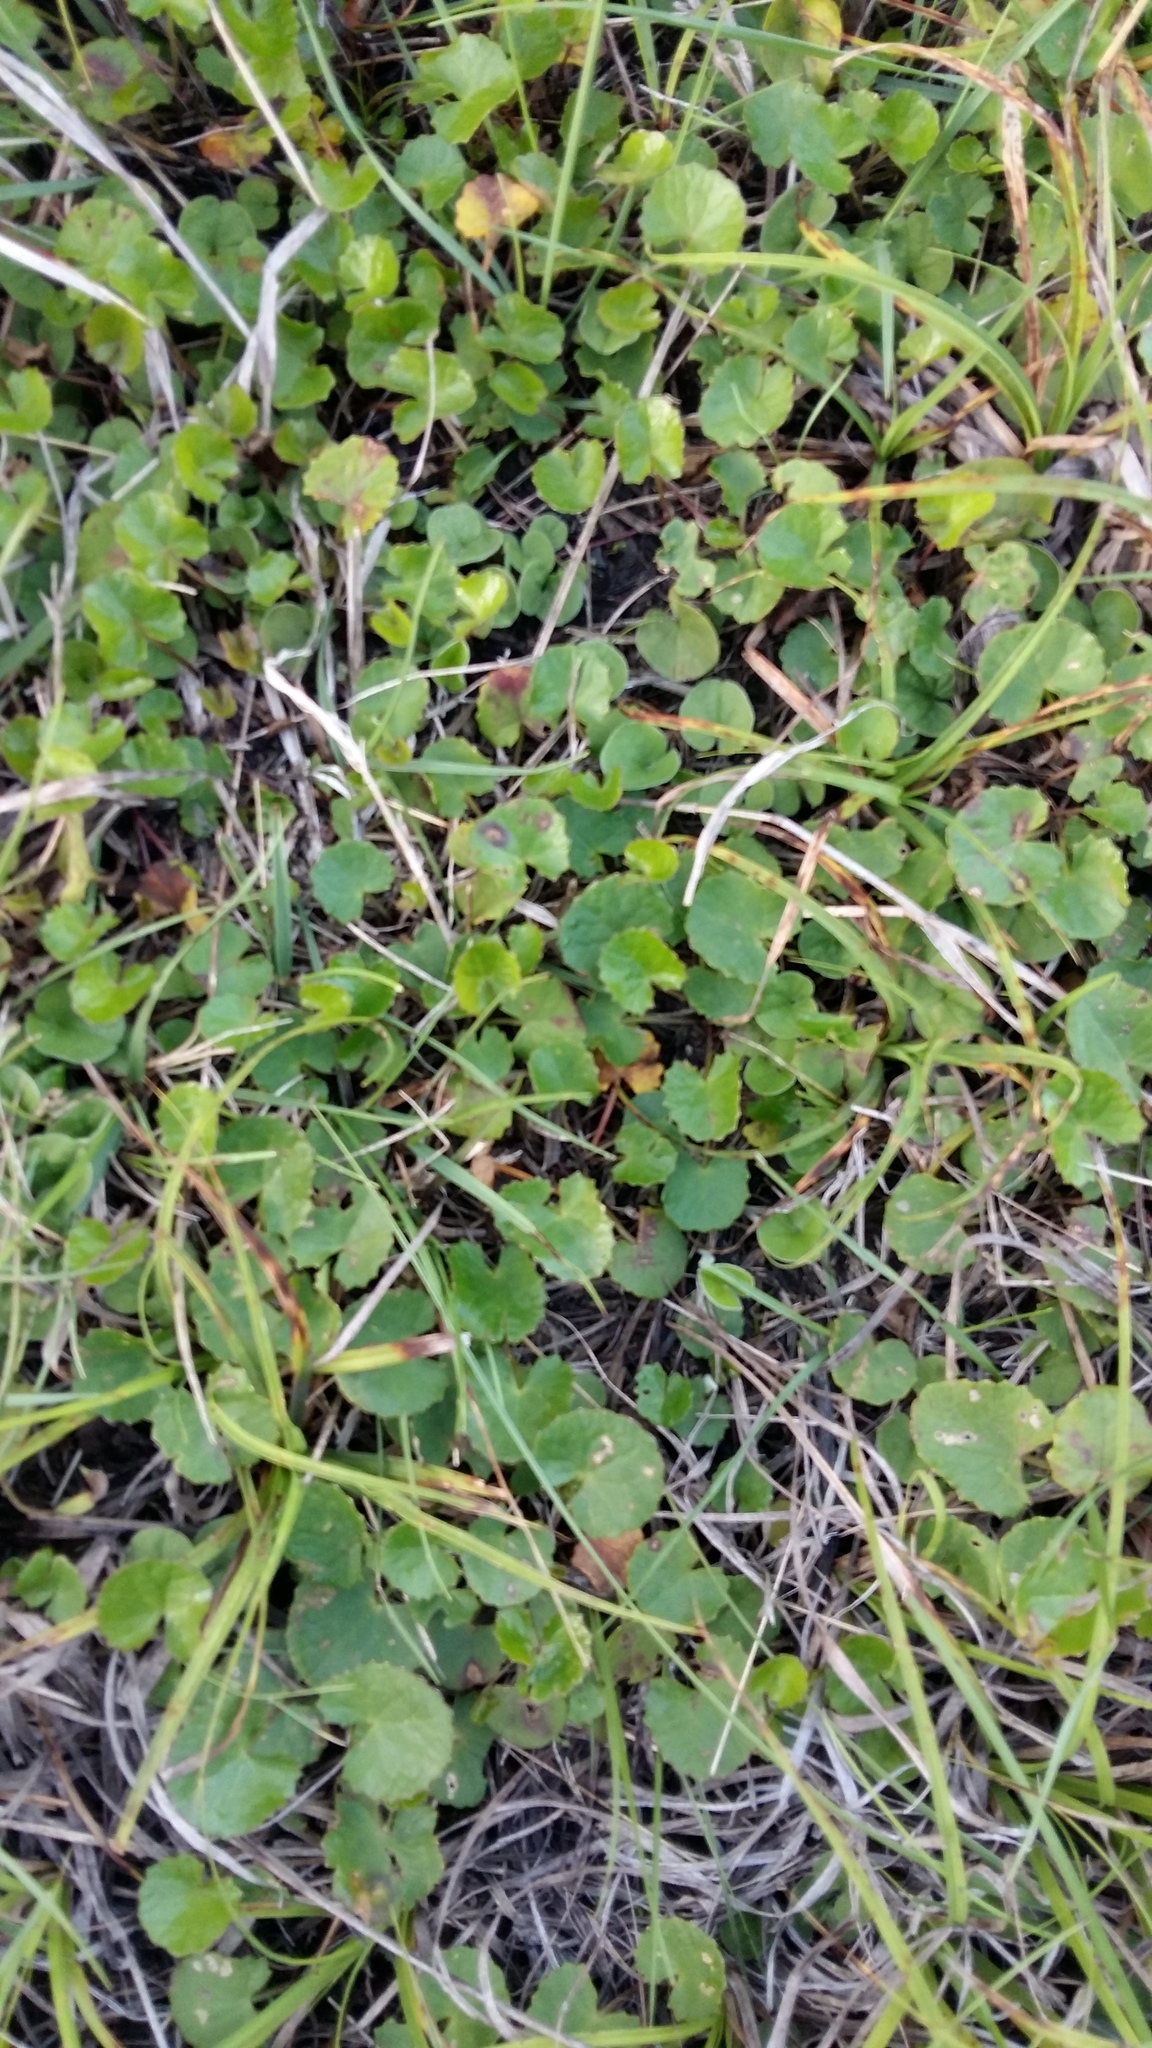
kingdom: Plantae
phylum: Tracheophyta
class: Magnoliopsida
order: Apiales
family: Apiaceae
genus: Centella
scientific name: Centella asiatica
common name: Spadeleaf
